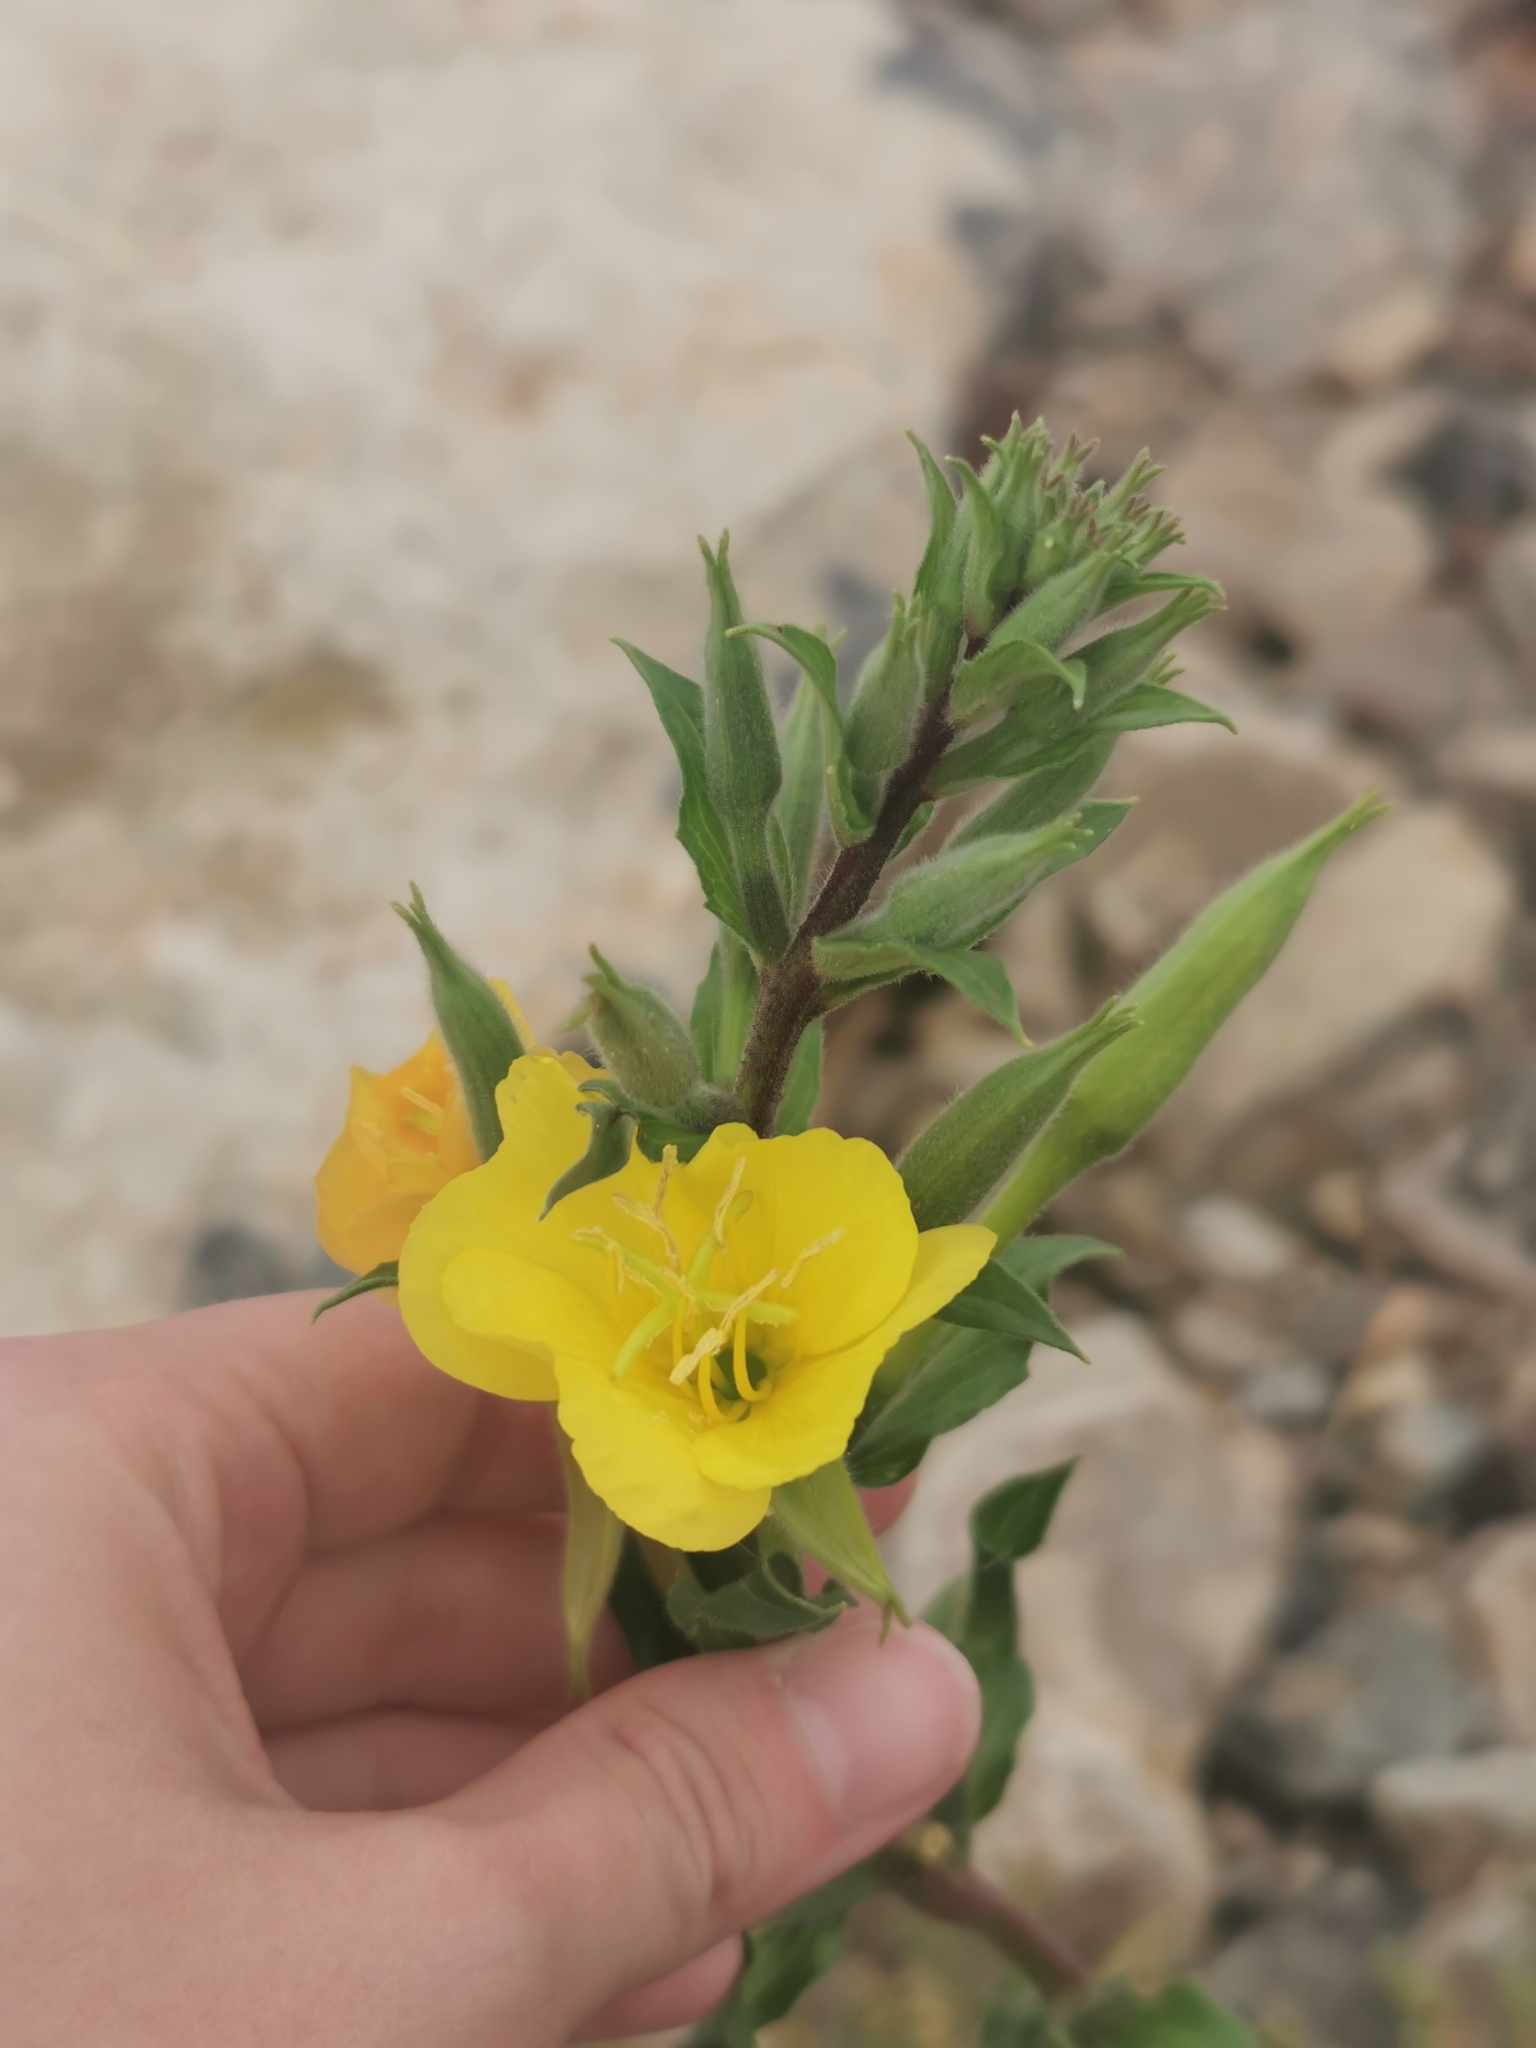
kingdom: Plantae
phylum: Tracheophyta
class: Magnoliopsida
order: Myrtales
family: Onagraceae
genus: Oenothera
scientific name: Oenothera rubricaulis
